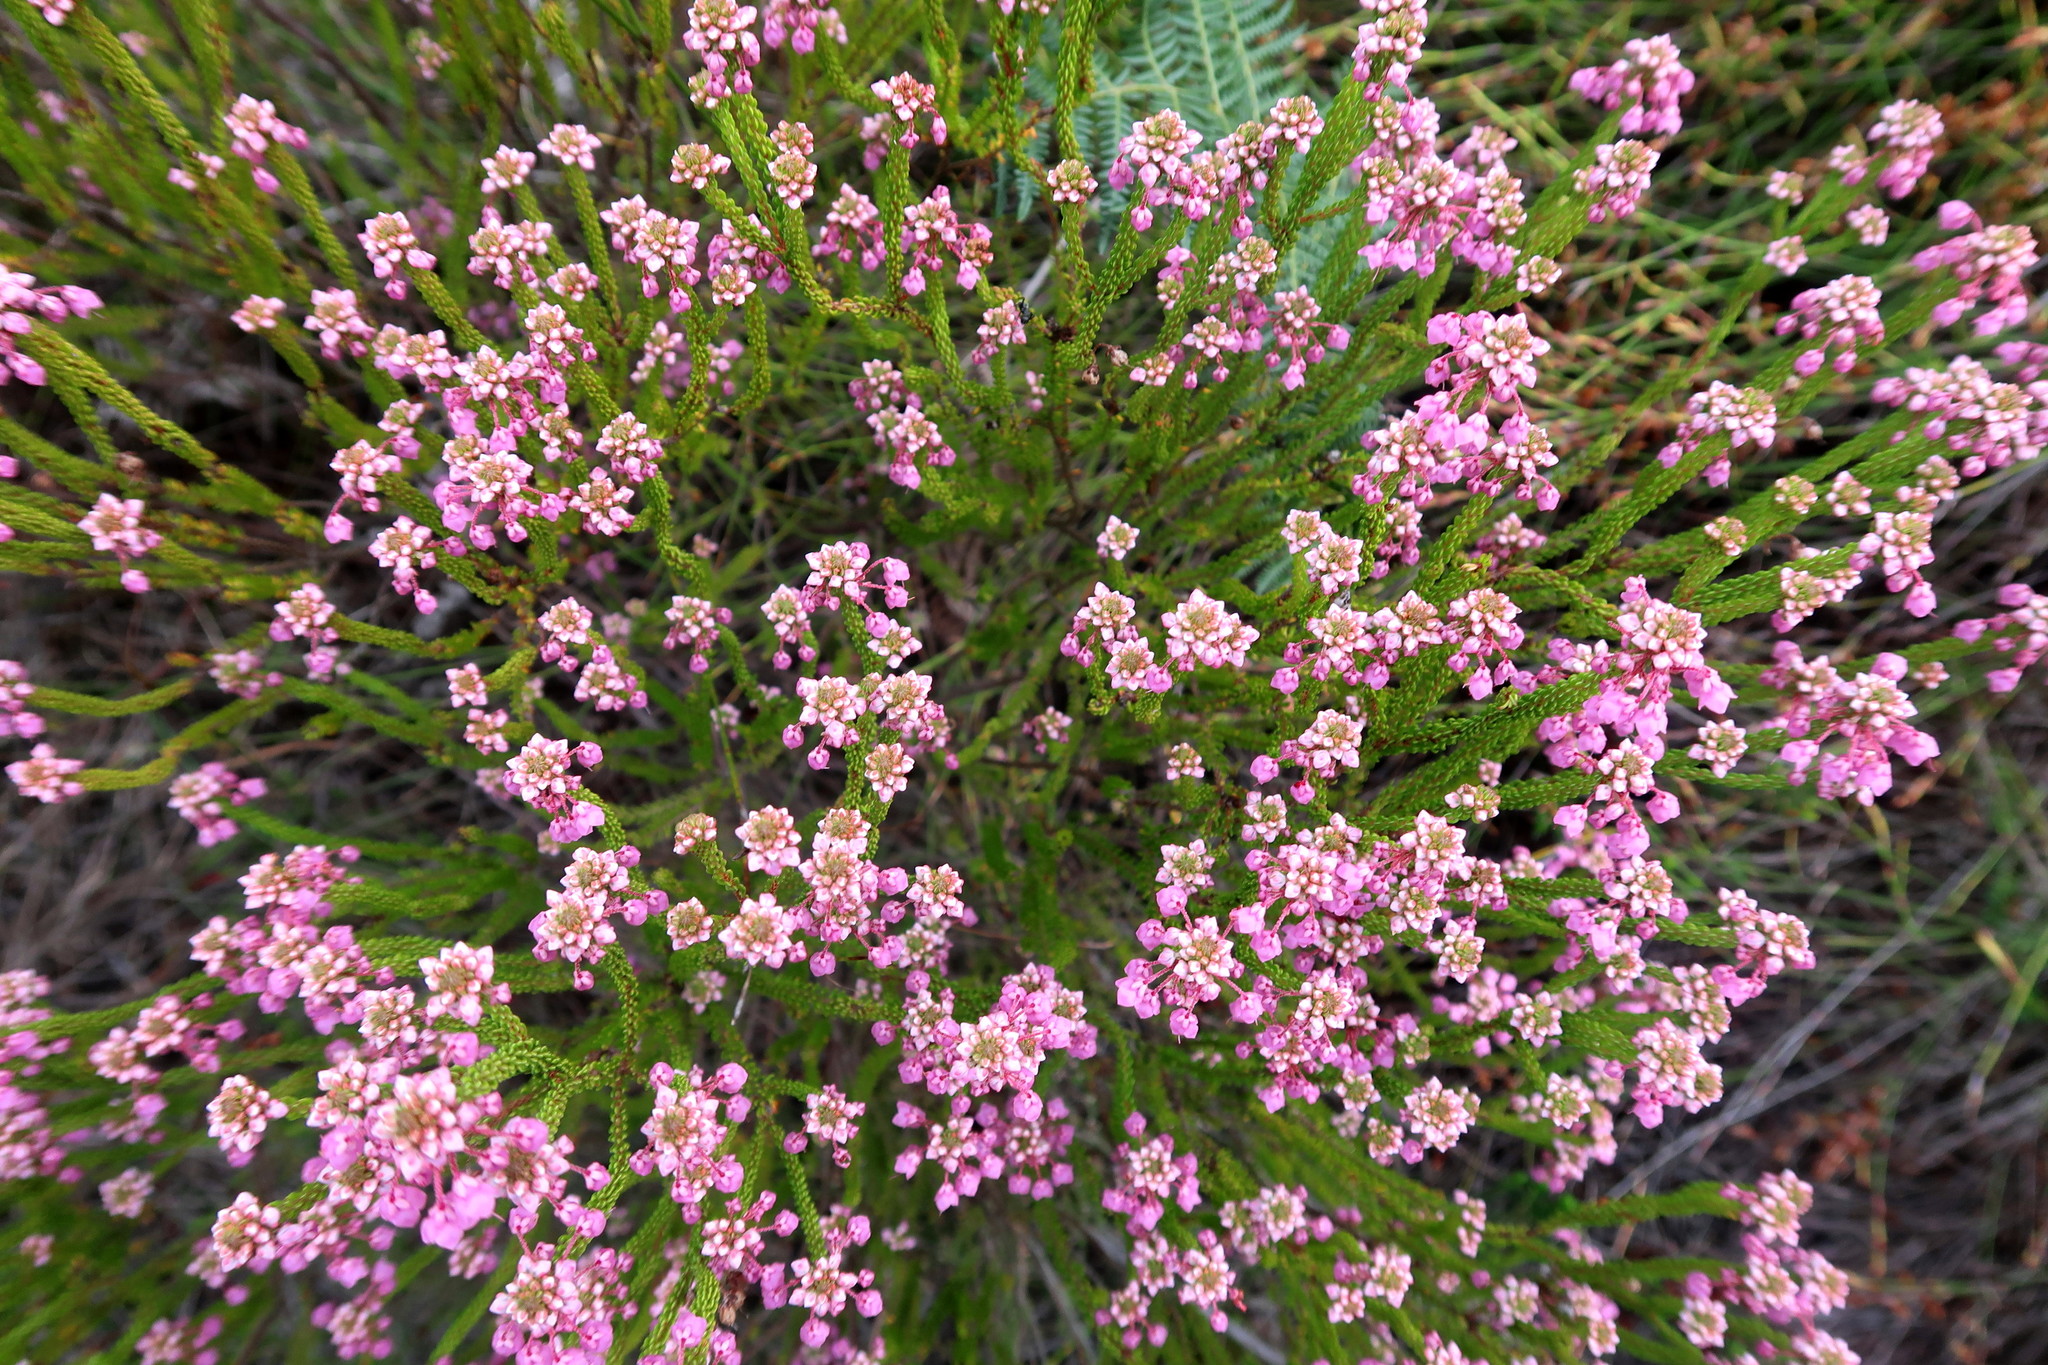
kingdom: Plantae
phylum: Tracheophyta
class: Magnoliopsida
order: Ericales
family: Ericaceae
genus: Erica
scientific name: Erica seriphiifolia
